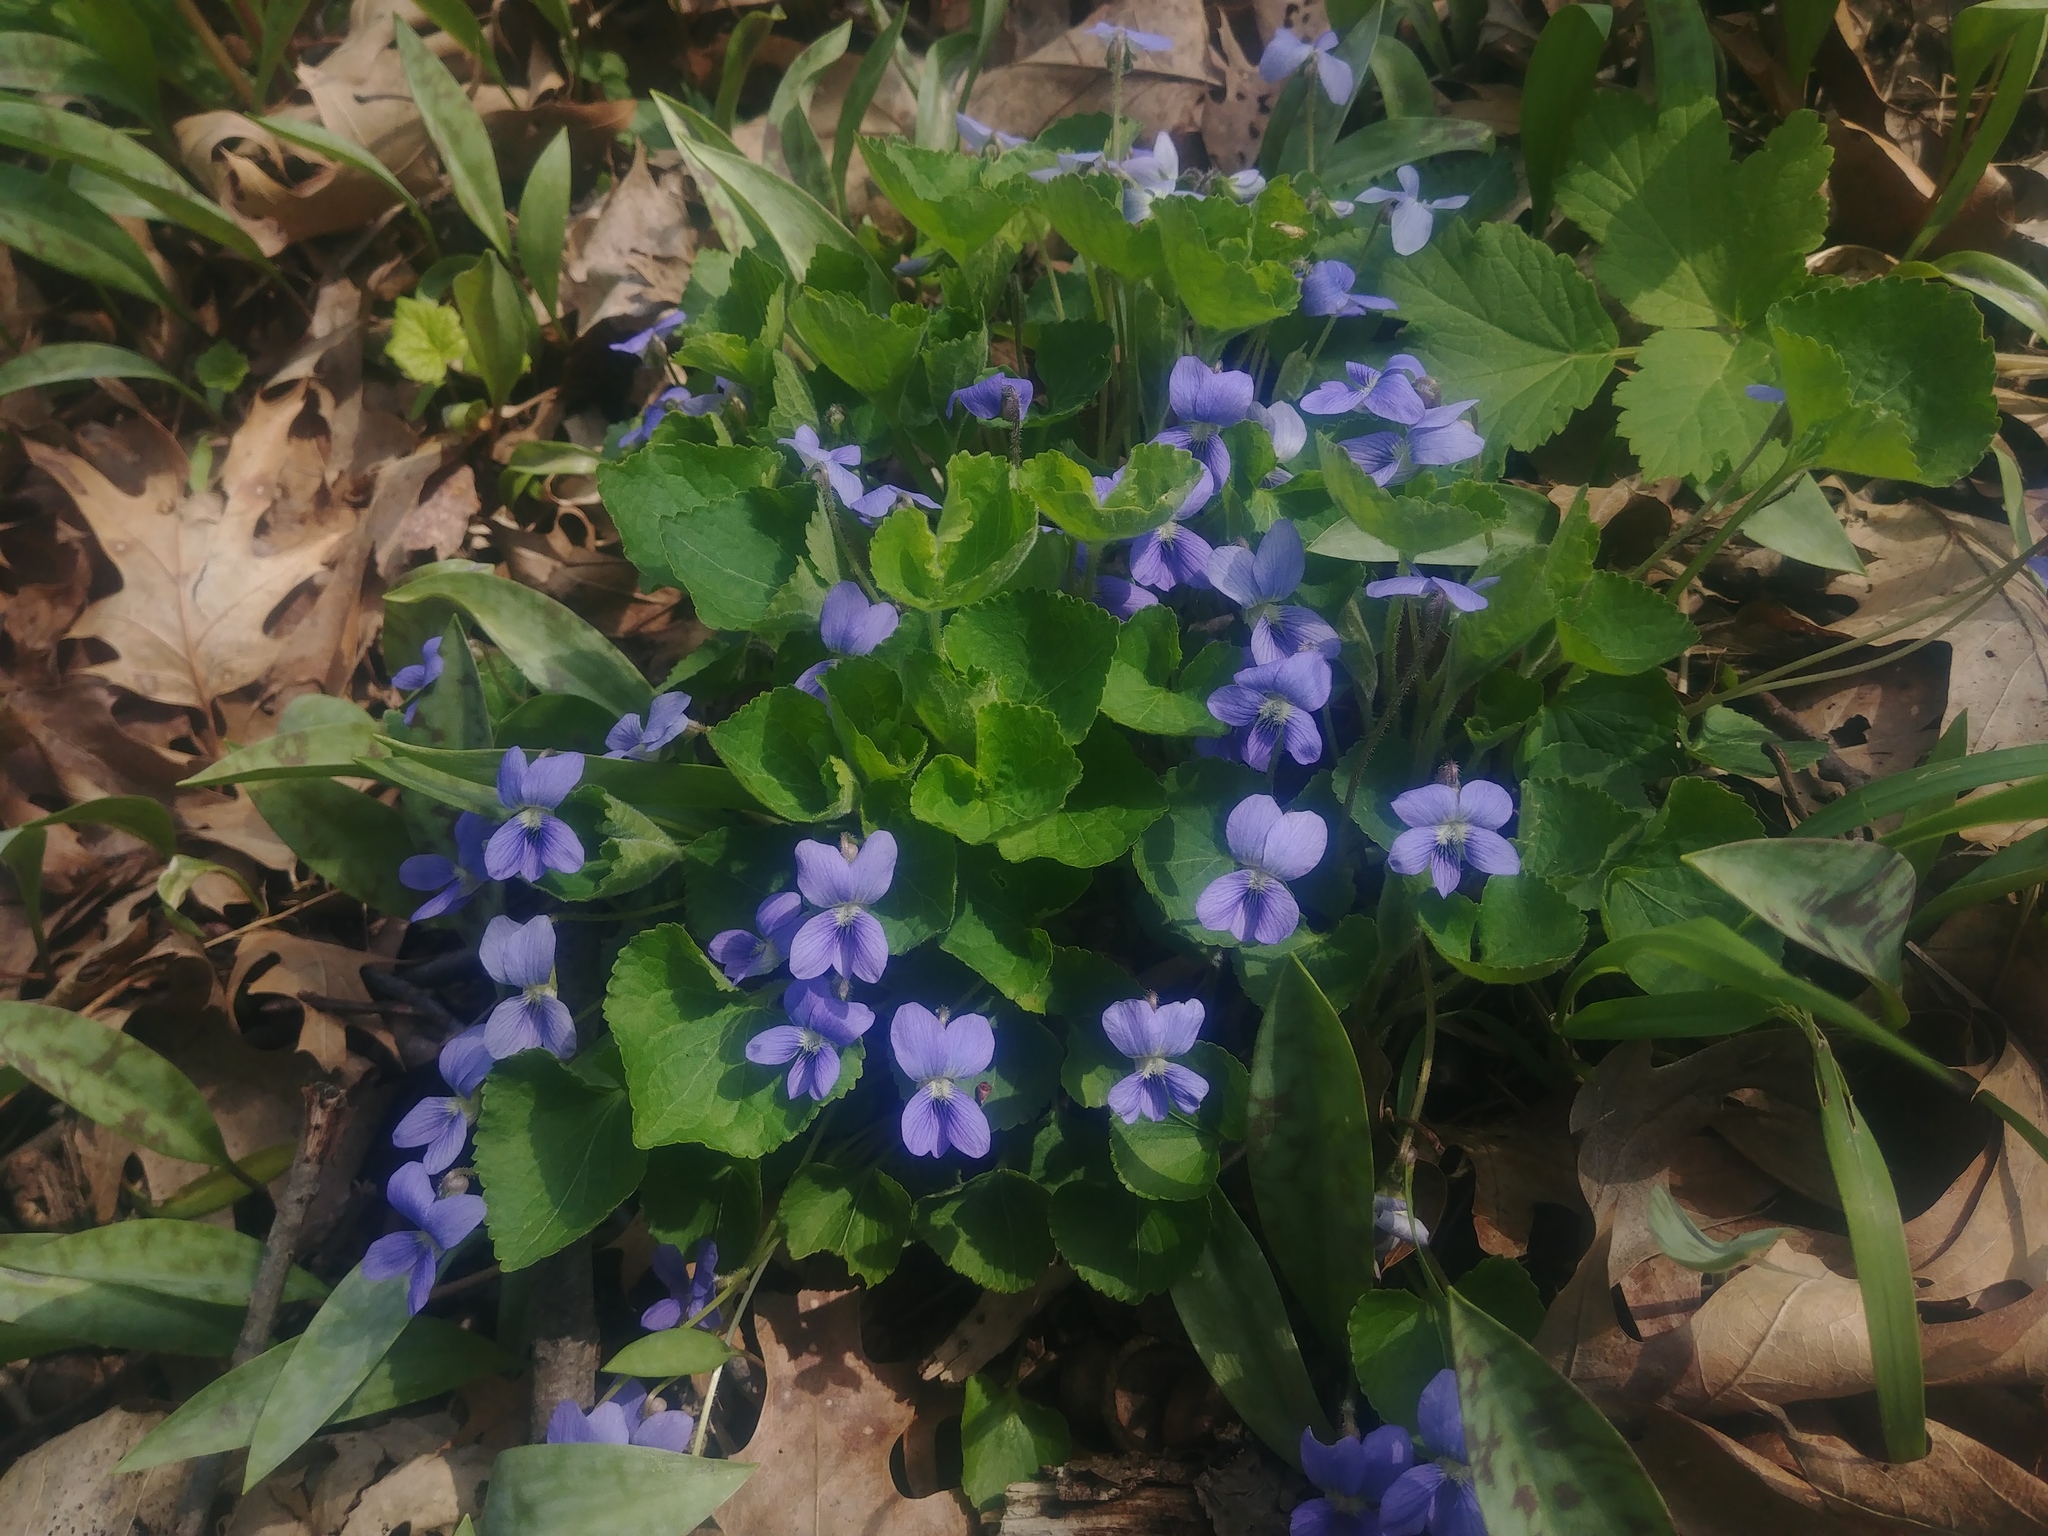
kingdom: Plantae
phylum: Tracheophyta
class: Magnoliopsida
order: Malpighiales
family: Violaceae
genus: Viola
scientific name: Viola sororia
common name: Dooryard violet
